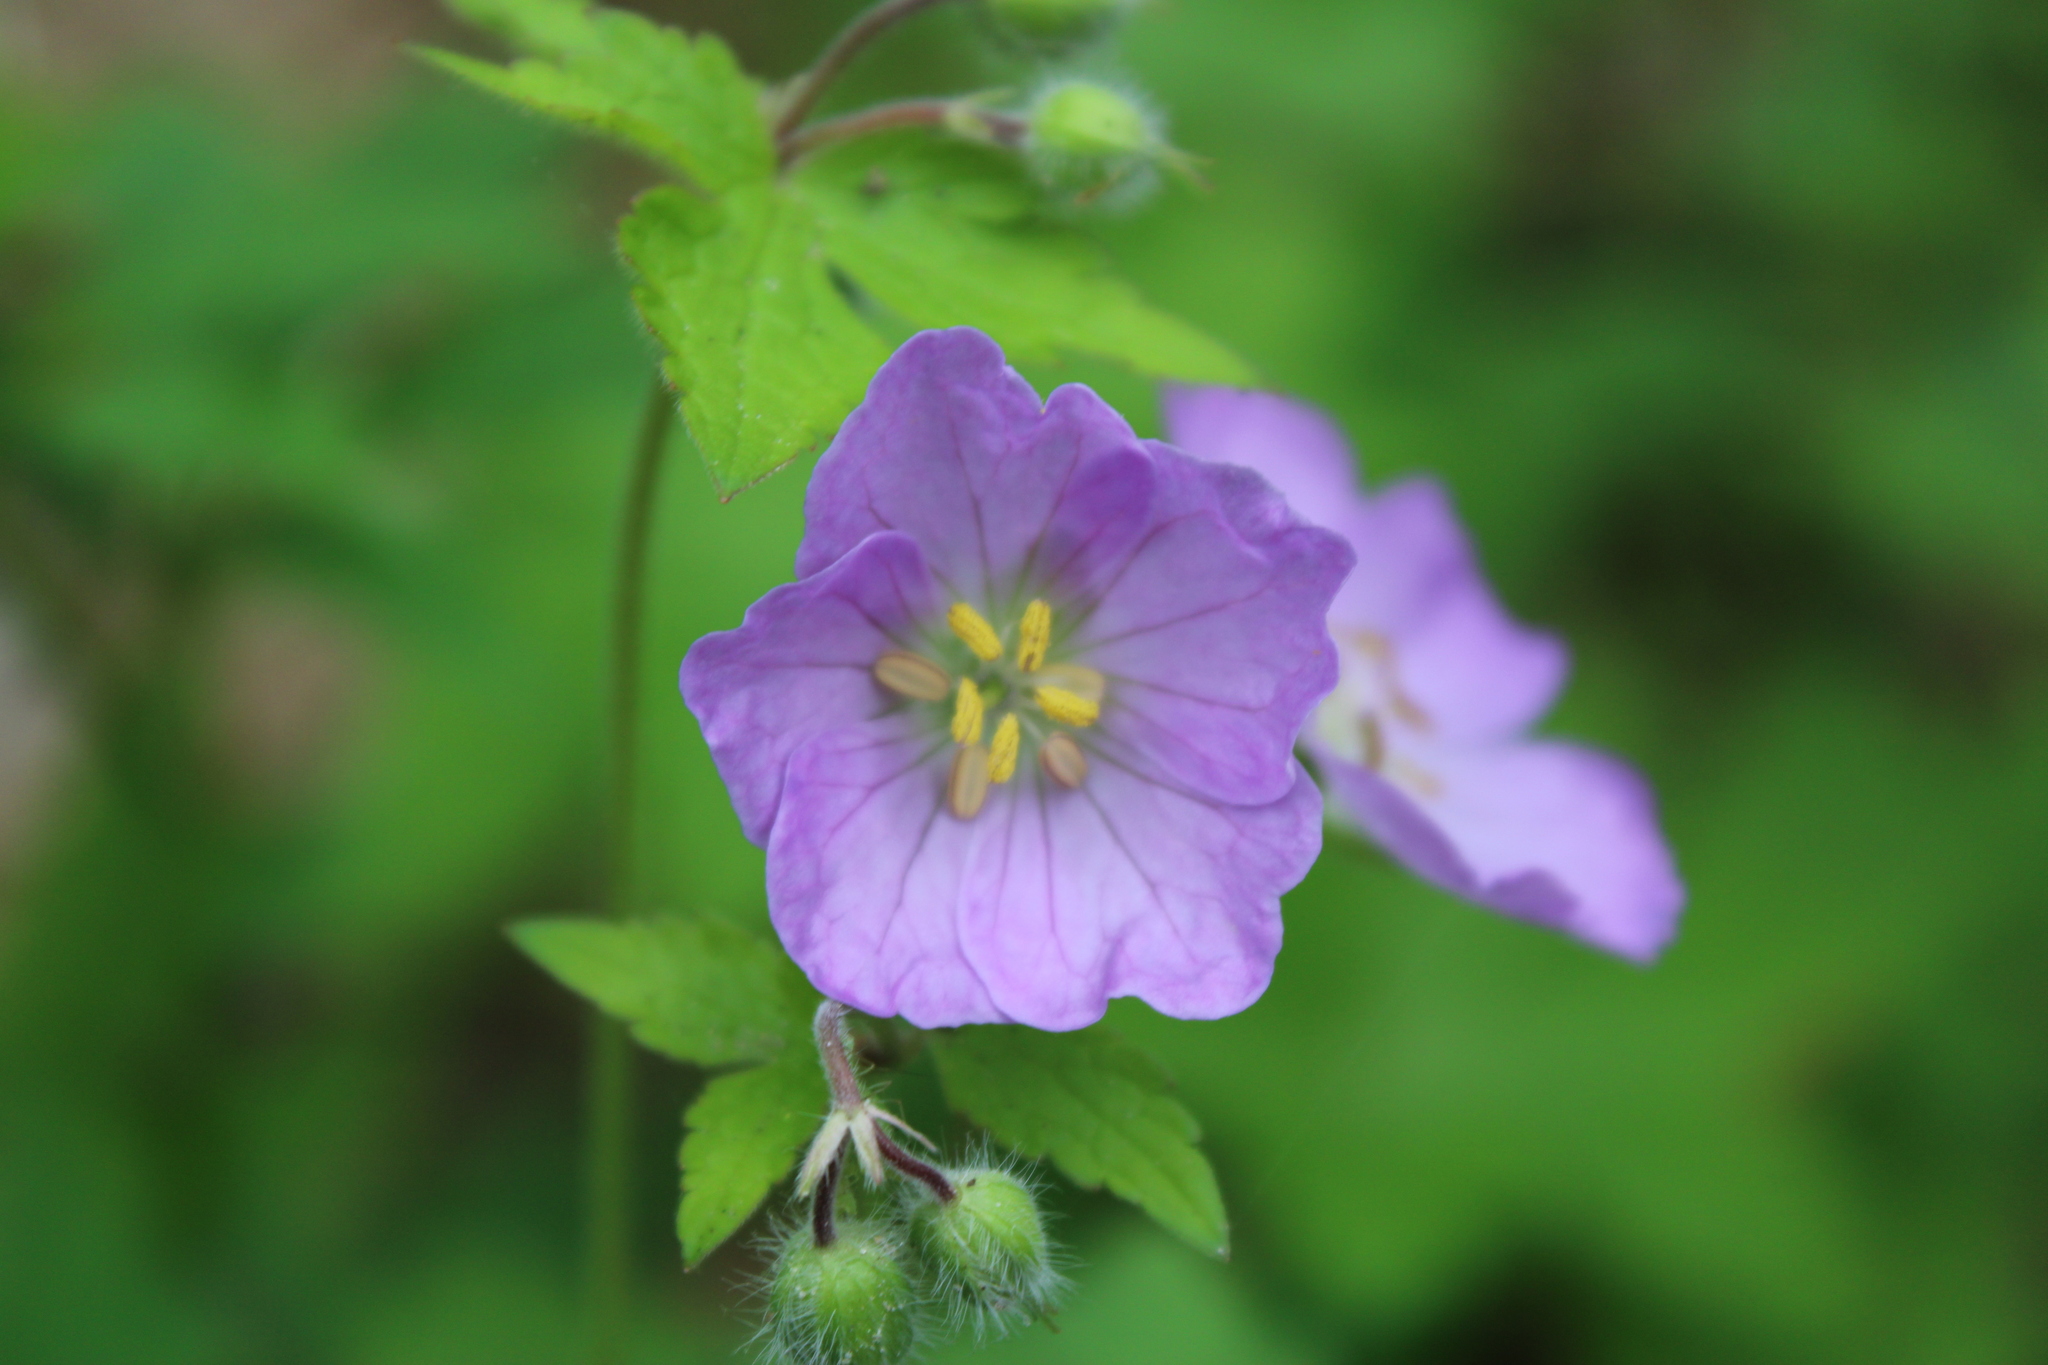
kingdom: Plantae
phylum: Tracheophyta
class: Magnoliopsida
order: Geraniales
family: Geraniaceae
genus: Geranium
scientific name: Geranium maculatum
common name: Spotted geranium
